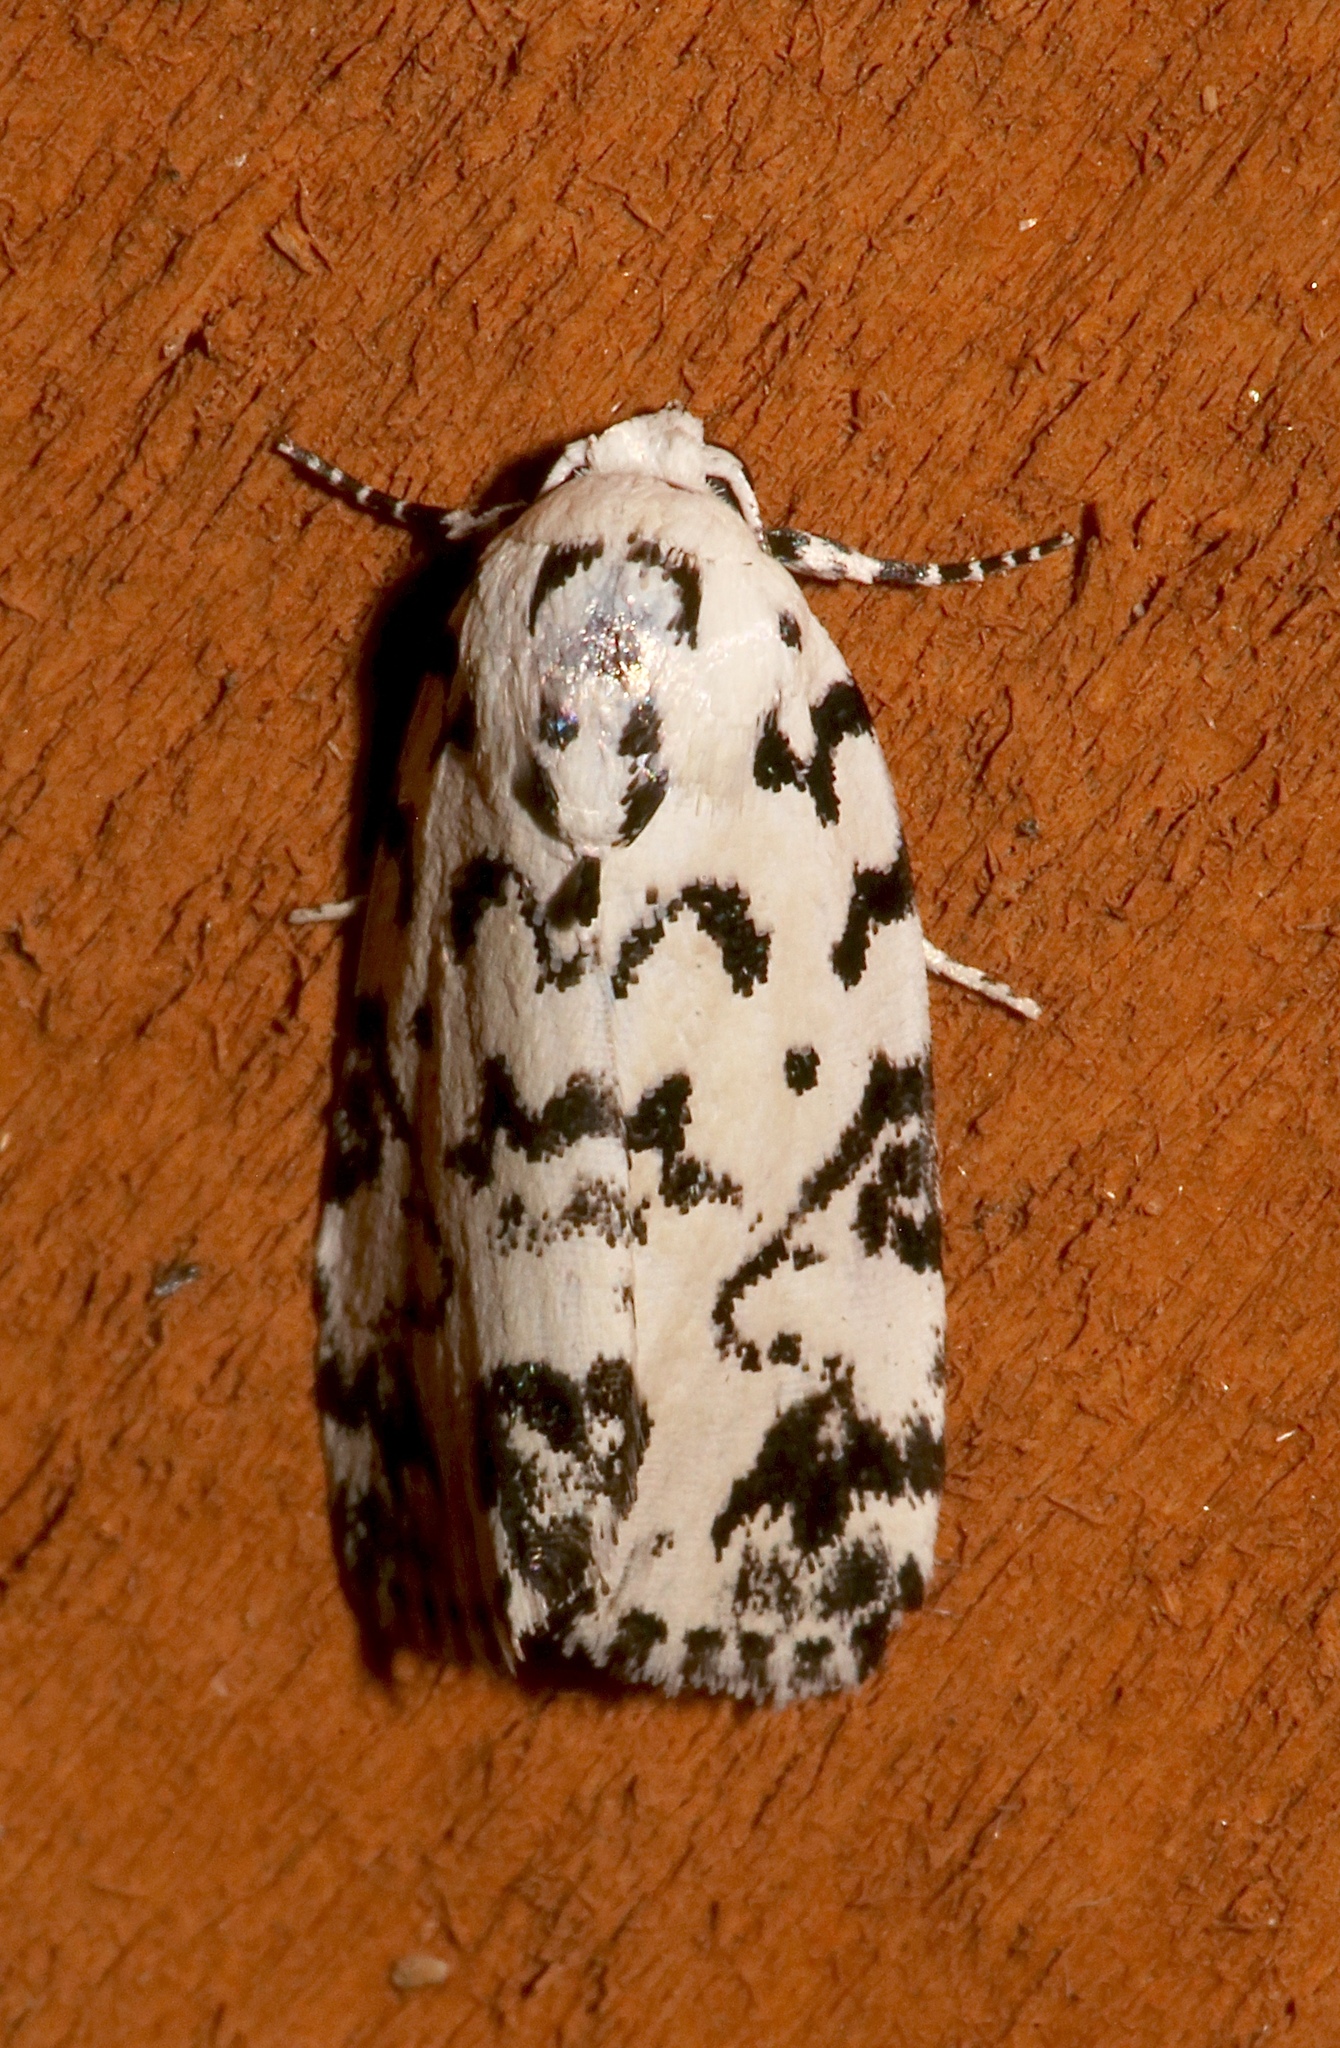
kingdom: Animalia
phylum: Arthropoda
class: Insecta
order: Lepidoptera
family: Noctuidae
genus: Polygrammate
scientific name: Polygrammate hebraeicum
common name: Hebrew moth
